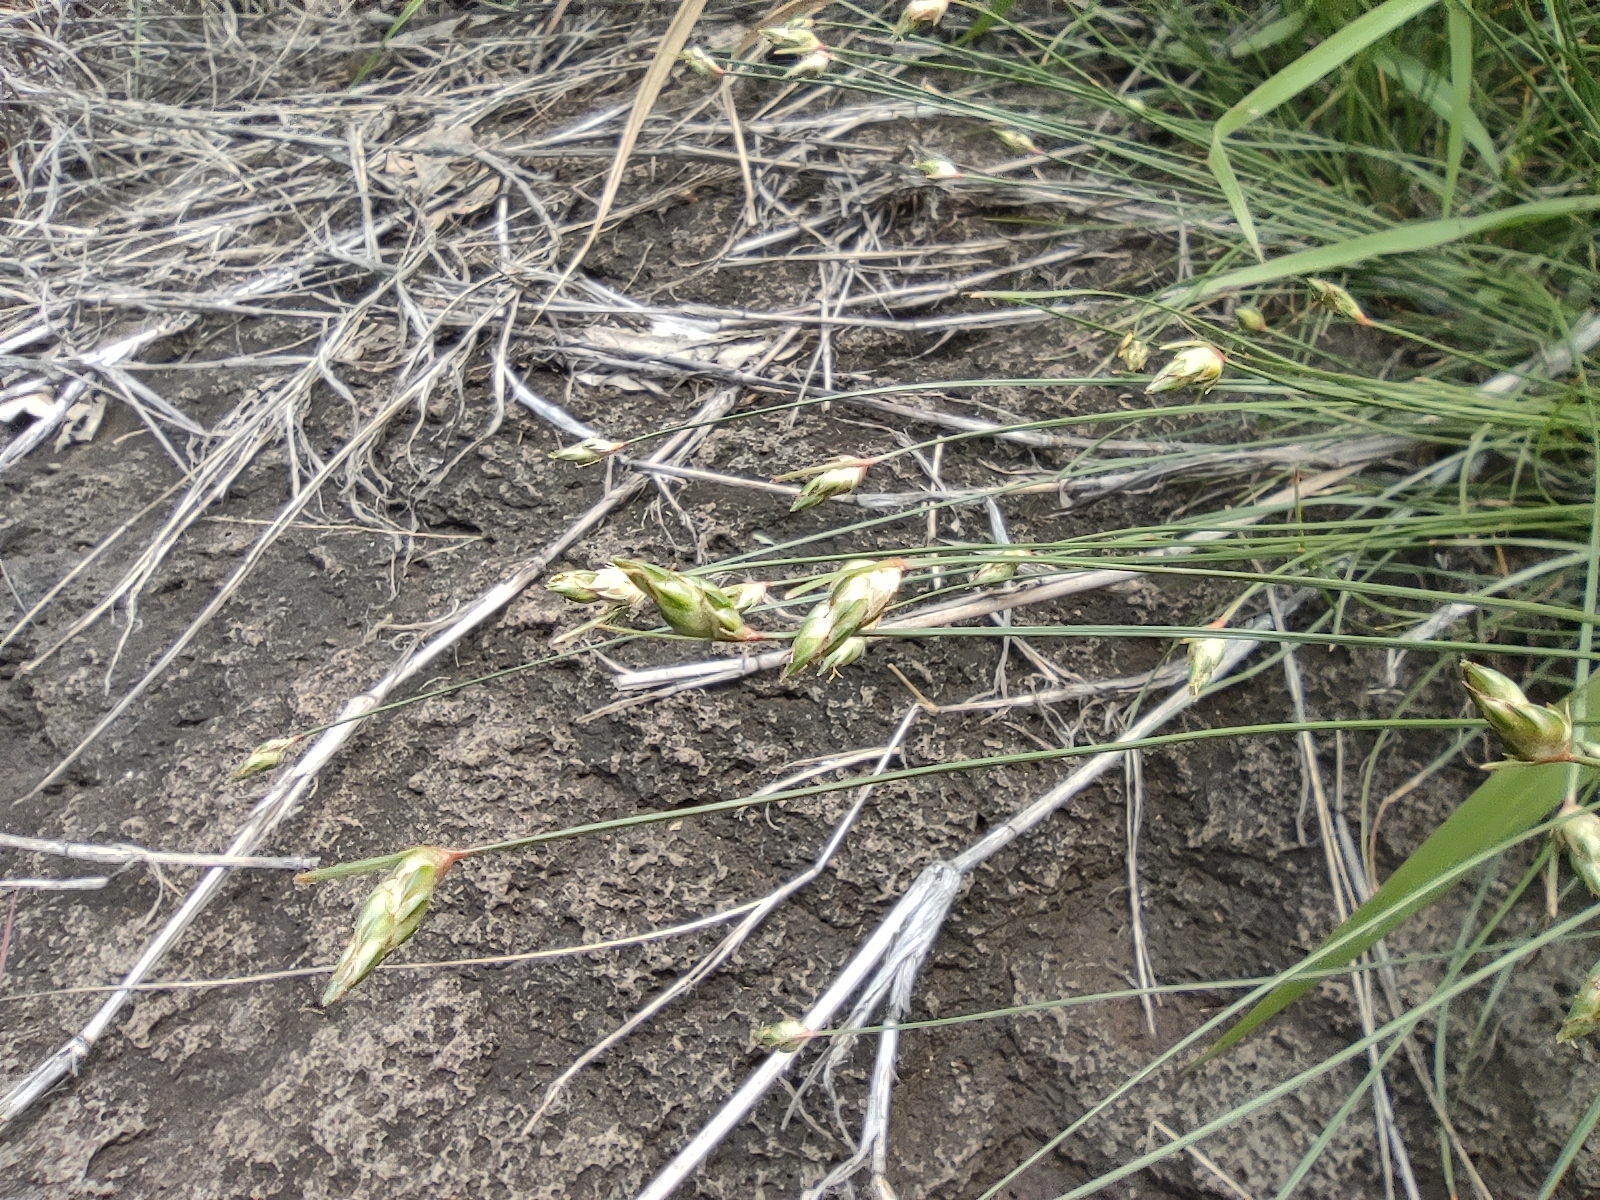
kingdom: Plantae
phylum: Tracheophyta
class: Liliopsida
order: Poales
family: Cyperaceae
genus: Abildgaardia
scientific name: Abildgaardia ovata
